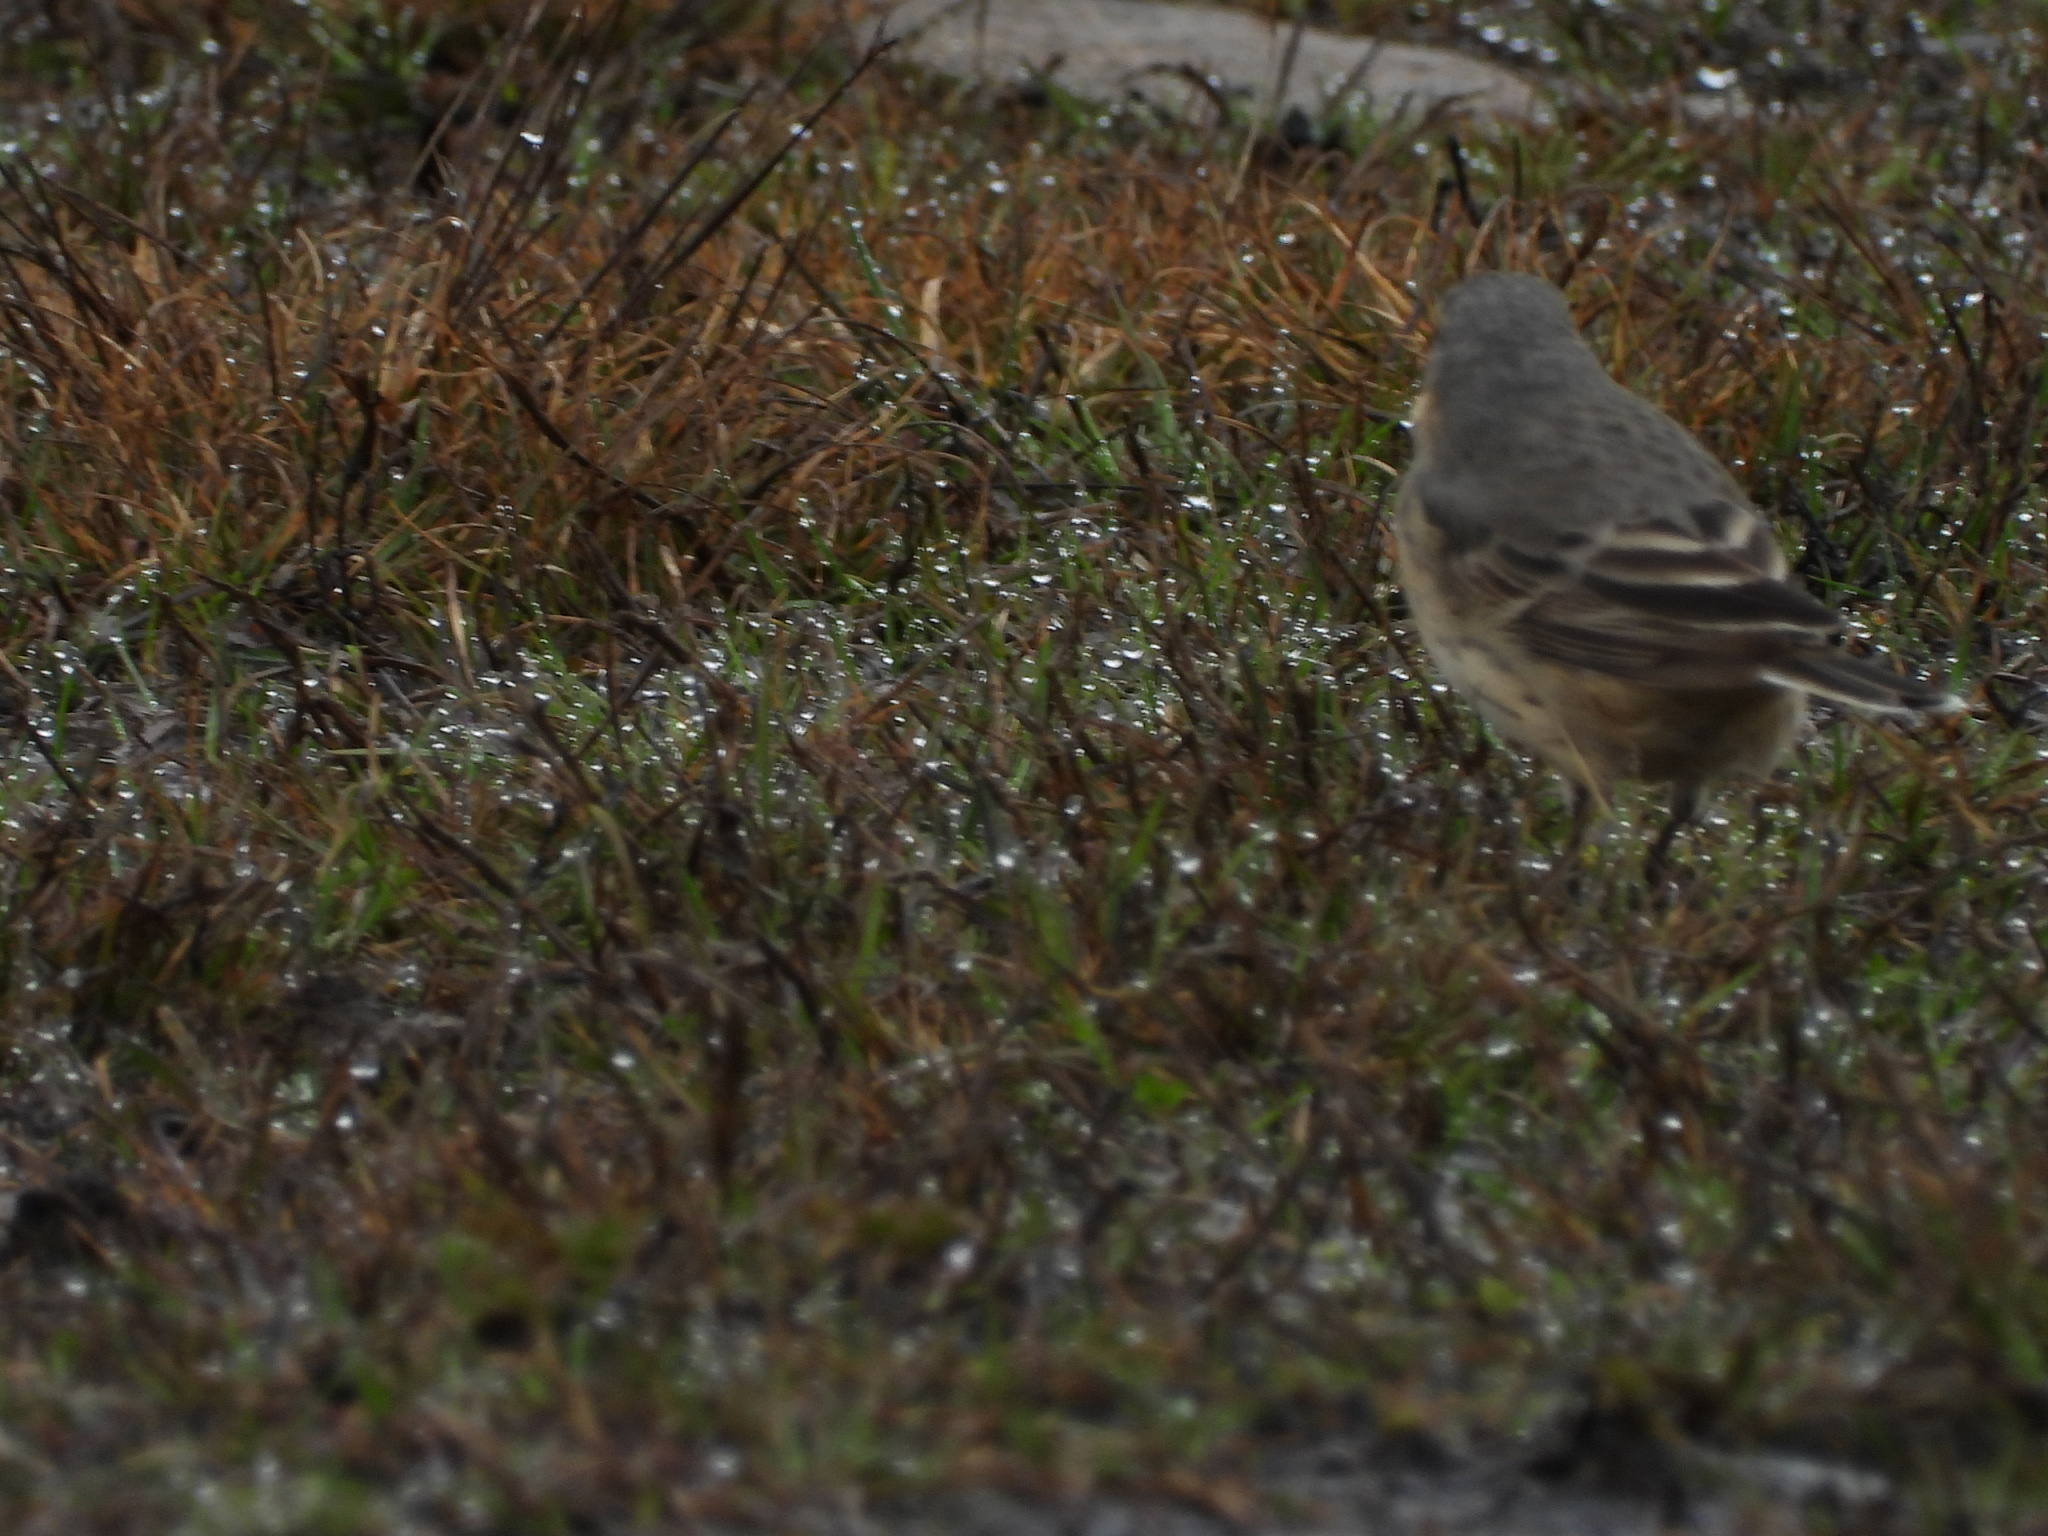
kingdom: Animalia
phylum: Chordata
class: Aves
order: Passeriformes
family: Motacillidae
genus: Anthus
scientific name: Anthus rubescens
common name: Buff-bellied pipit
